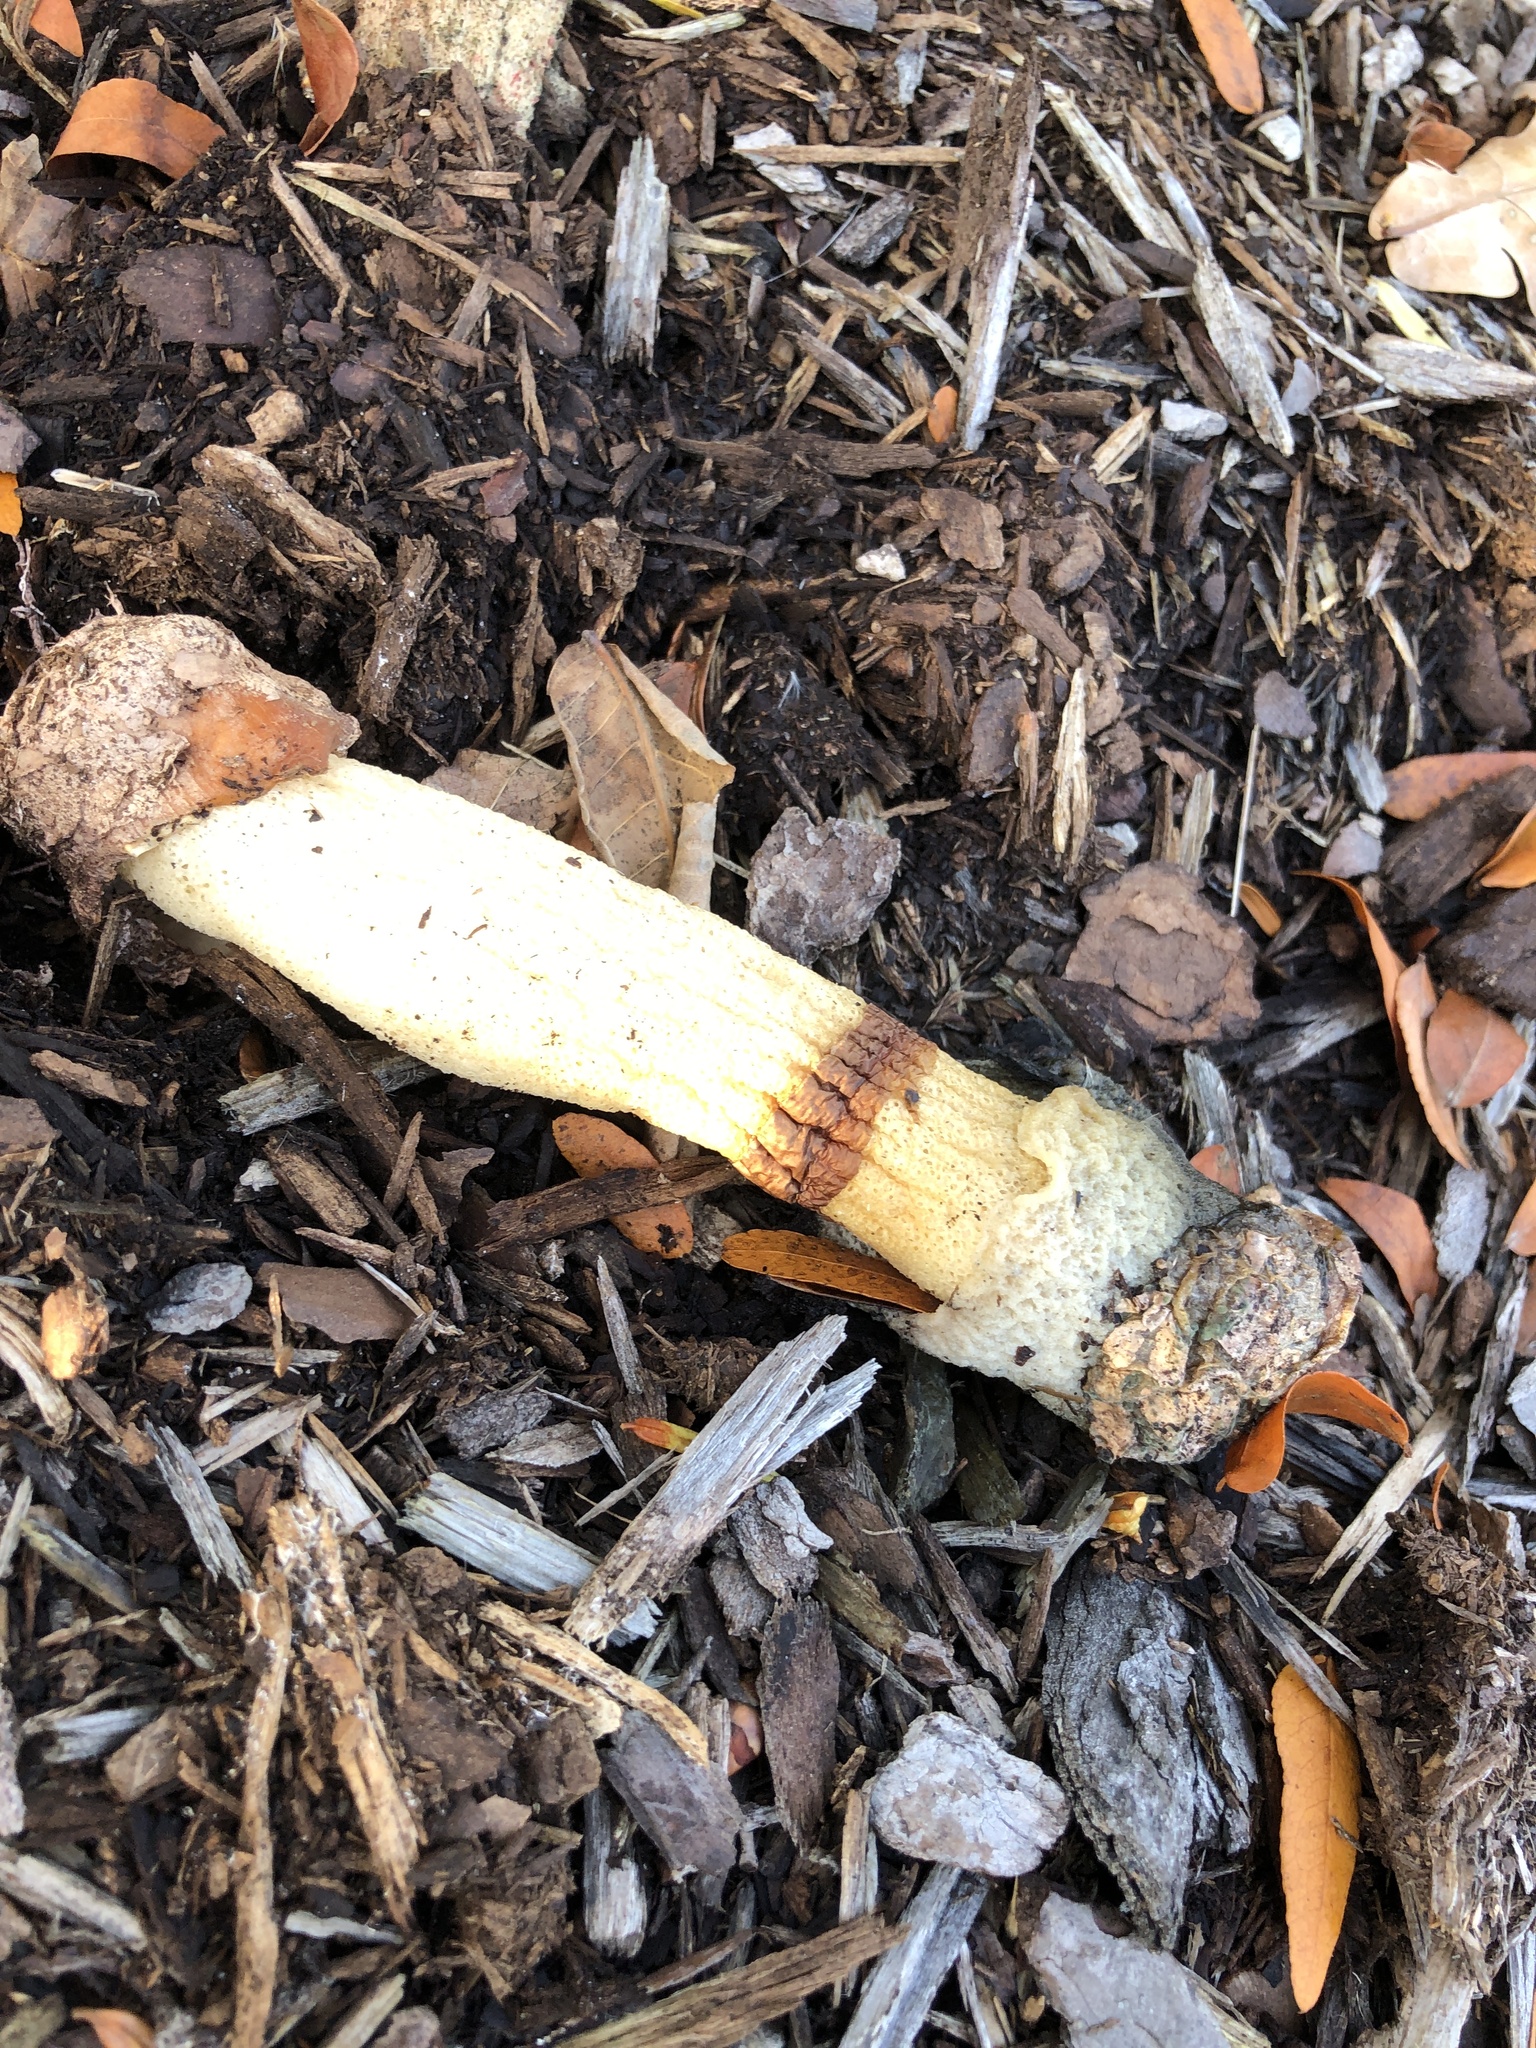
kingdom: Fungi
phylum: Basidiomycota
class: Agaricomycetes
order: Phallales
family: Phallaceae
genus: Phallus
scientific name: Phallus ravenelii
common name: Ravenel's stinkhorn
